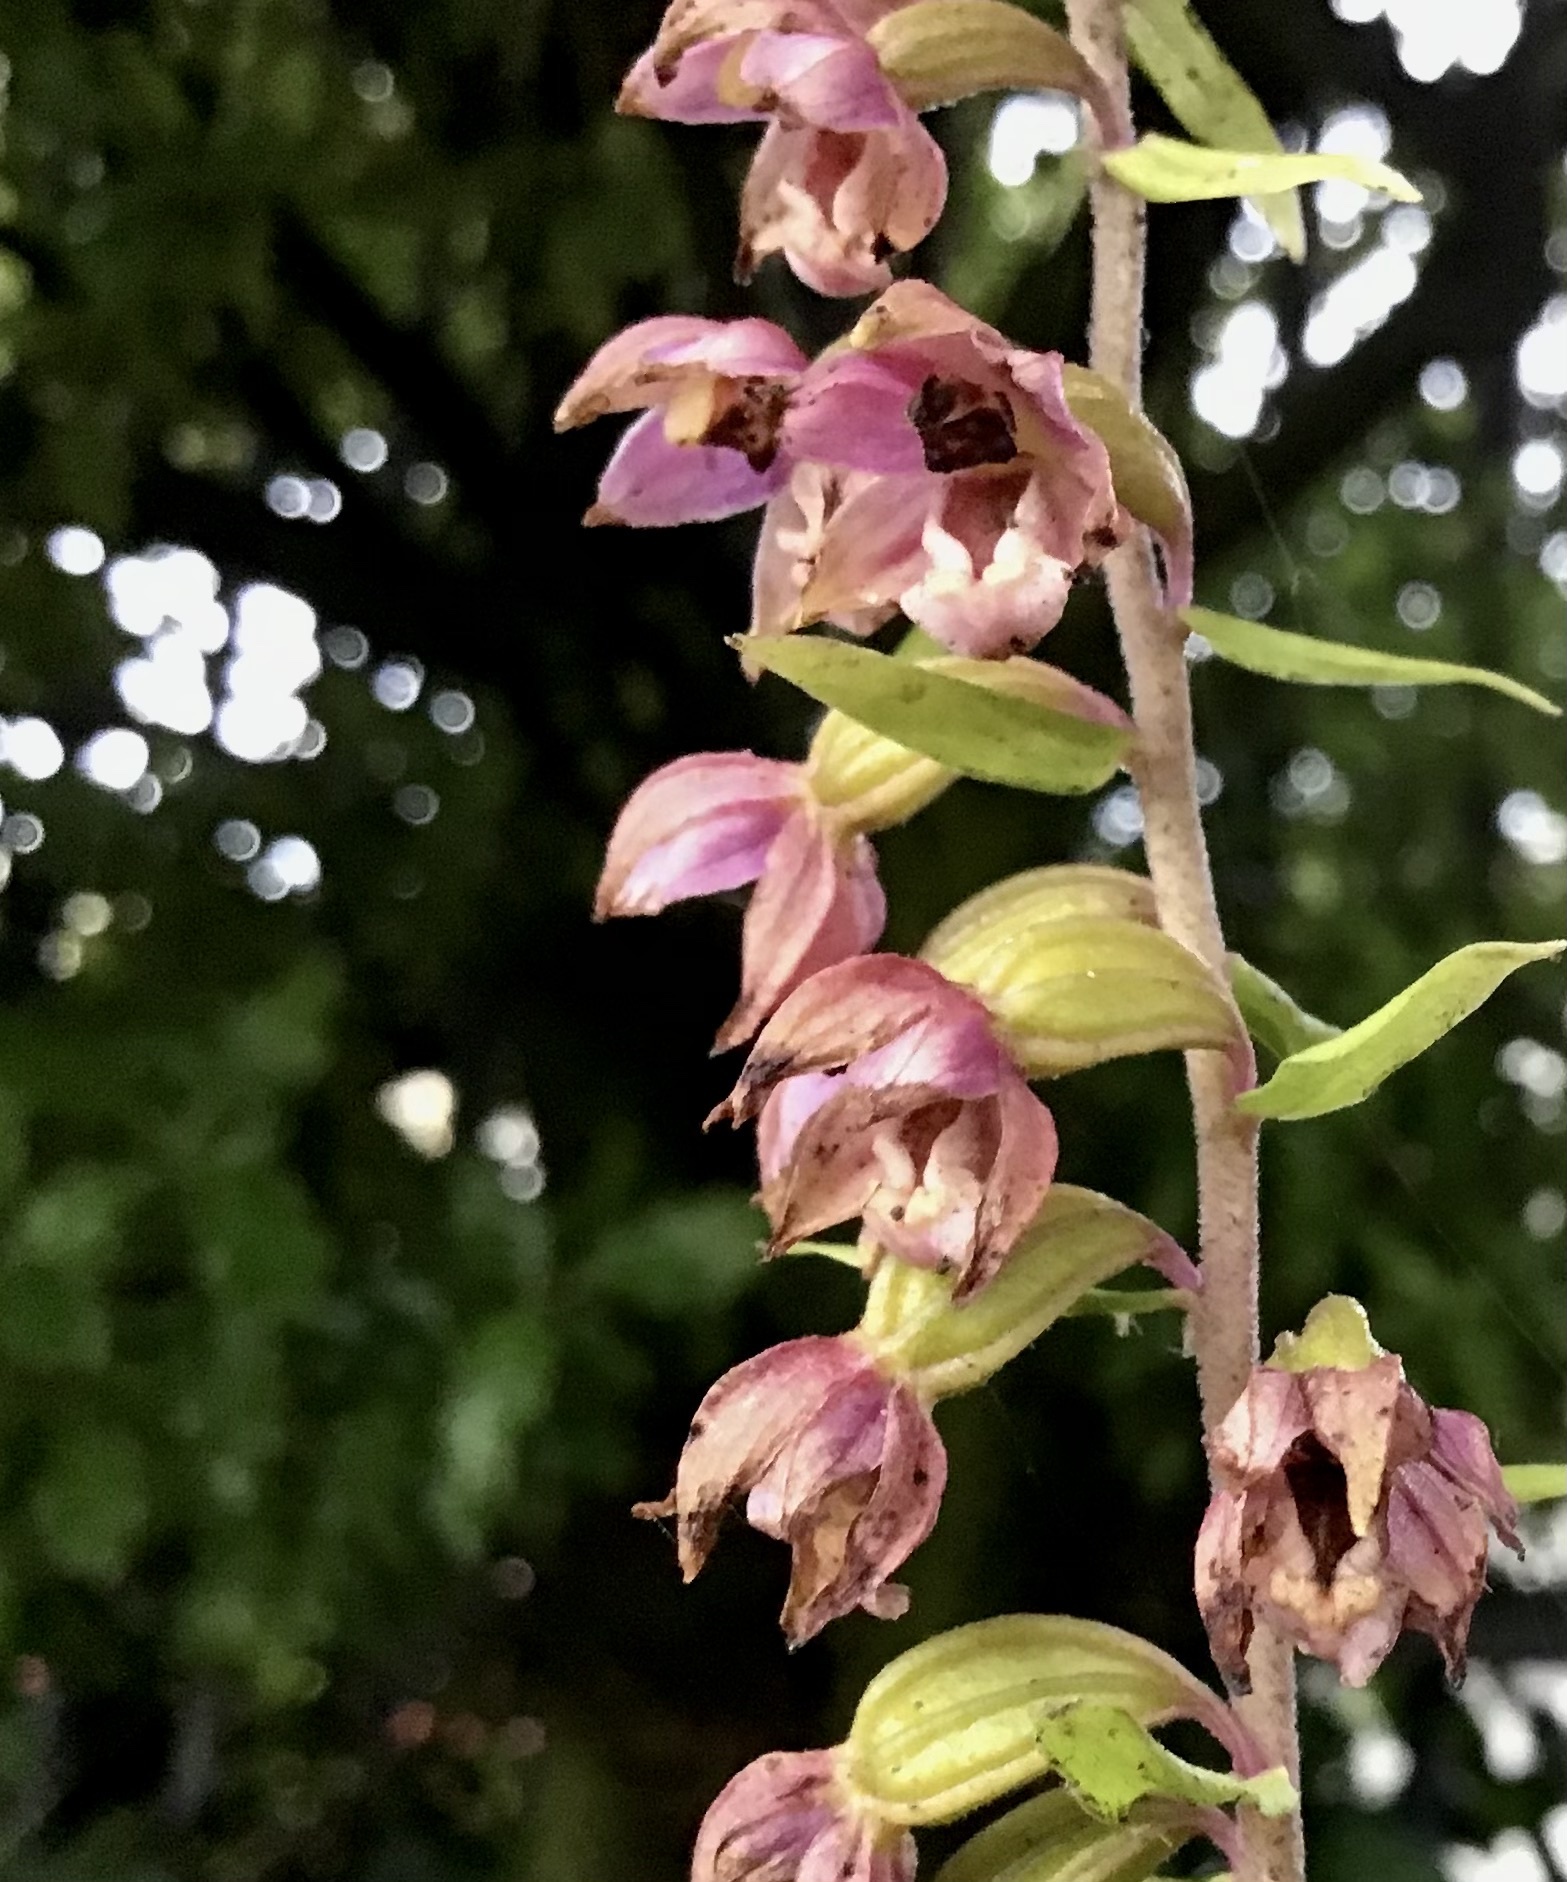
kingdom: Plantae
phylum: Tracheophyta
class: Liliopsida
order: Asparagales
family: Orchidaceae
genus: Epipactis
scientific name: Epipactis helleborine
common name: Broad-leaved helleborine
